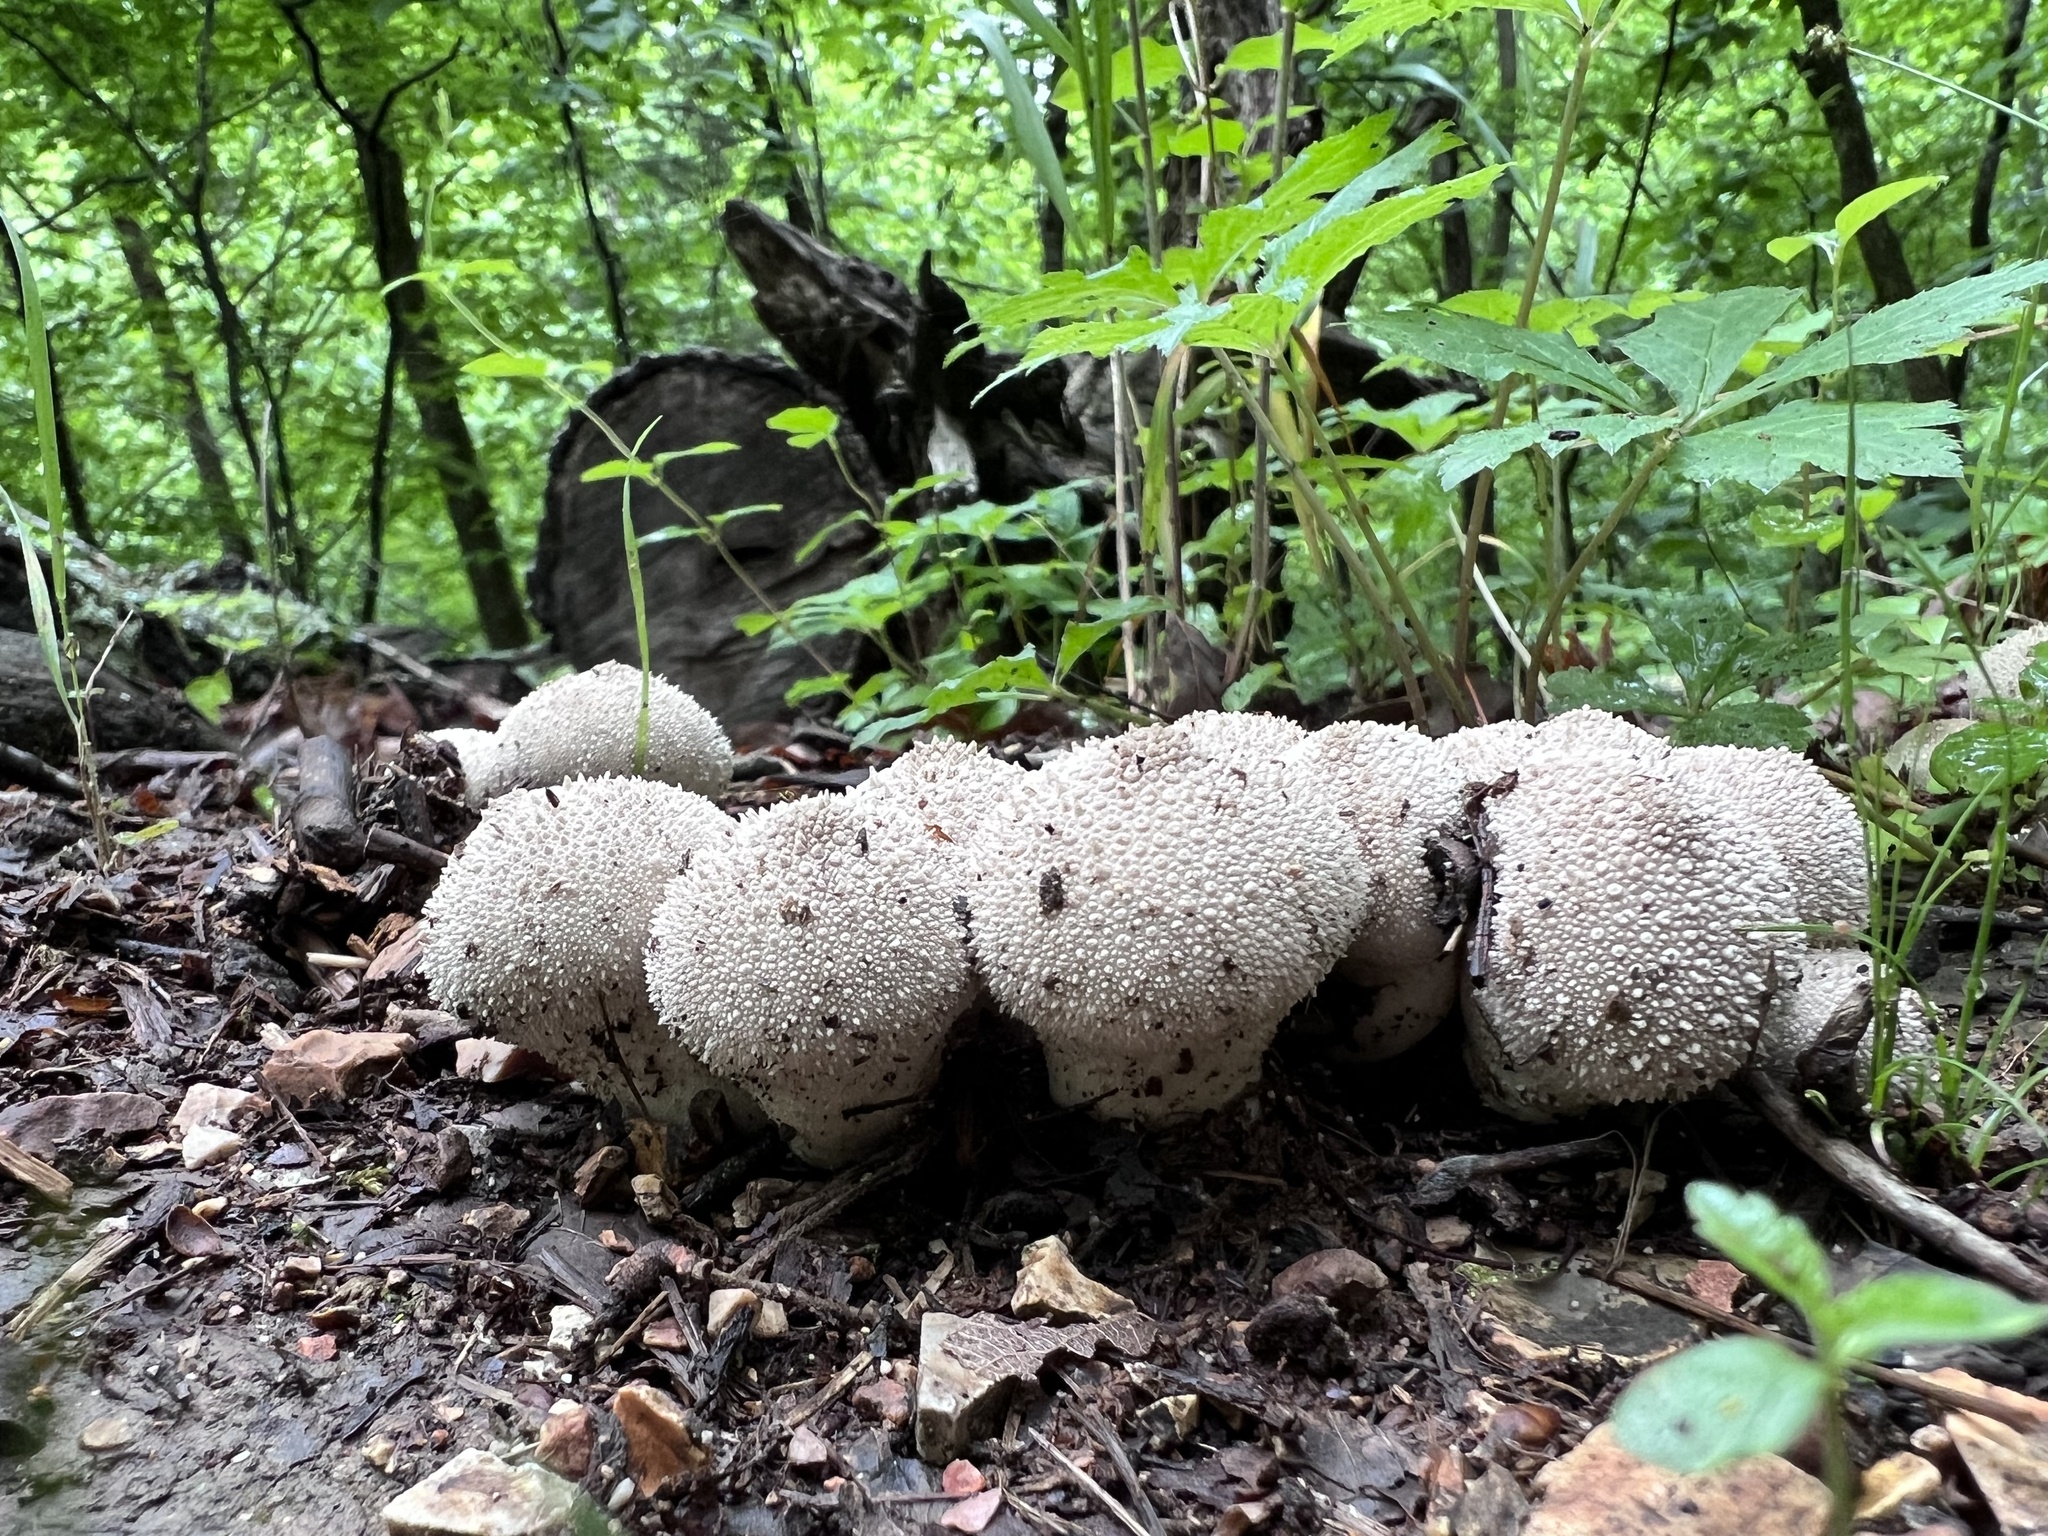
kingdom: Fungi
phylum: Basidiomycota
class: Agaricomycetes
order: Agaricales
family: Lycoperdaceae
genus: Lycoperdon
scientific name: Lycoperdon perlatum
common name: Common puffball
